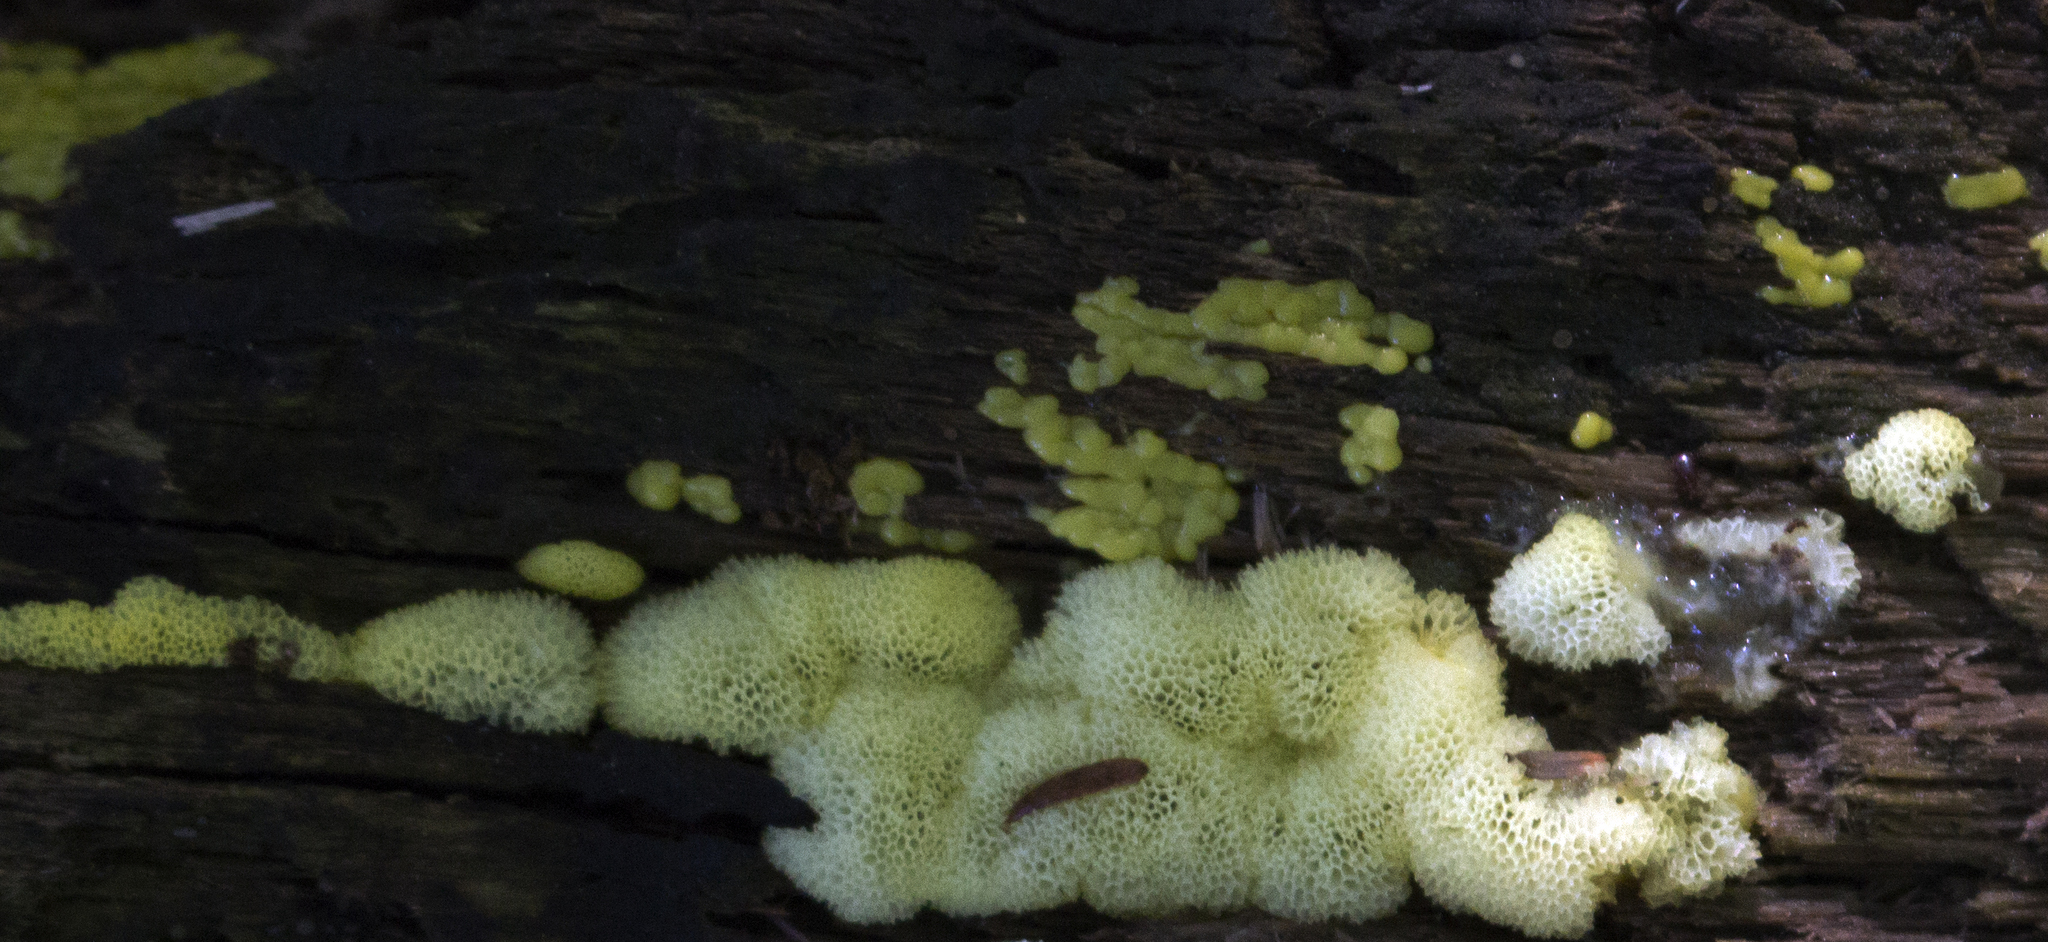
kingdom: Protozoa
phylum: Mycetozoa
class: Protosteliomycetes
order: Ceratiomyxales
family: Ceratiomyxaceae
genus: Ceratiomyxa
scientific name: Ceratiomyxa fruticulosa
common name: Honeycomb coral slime mold
